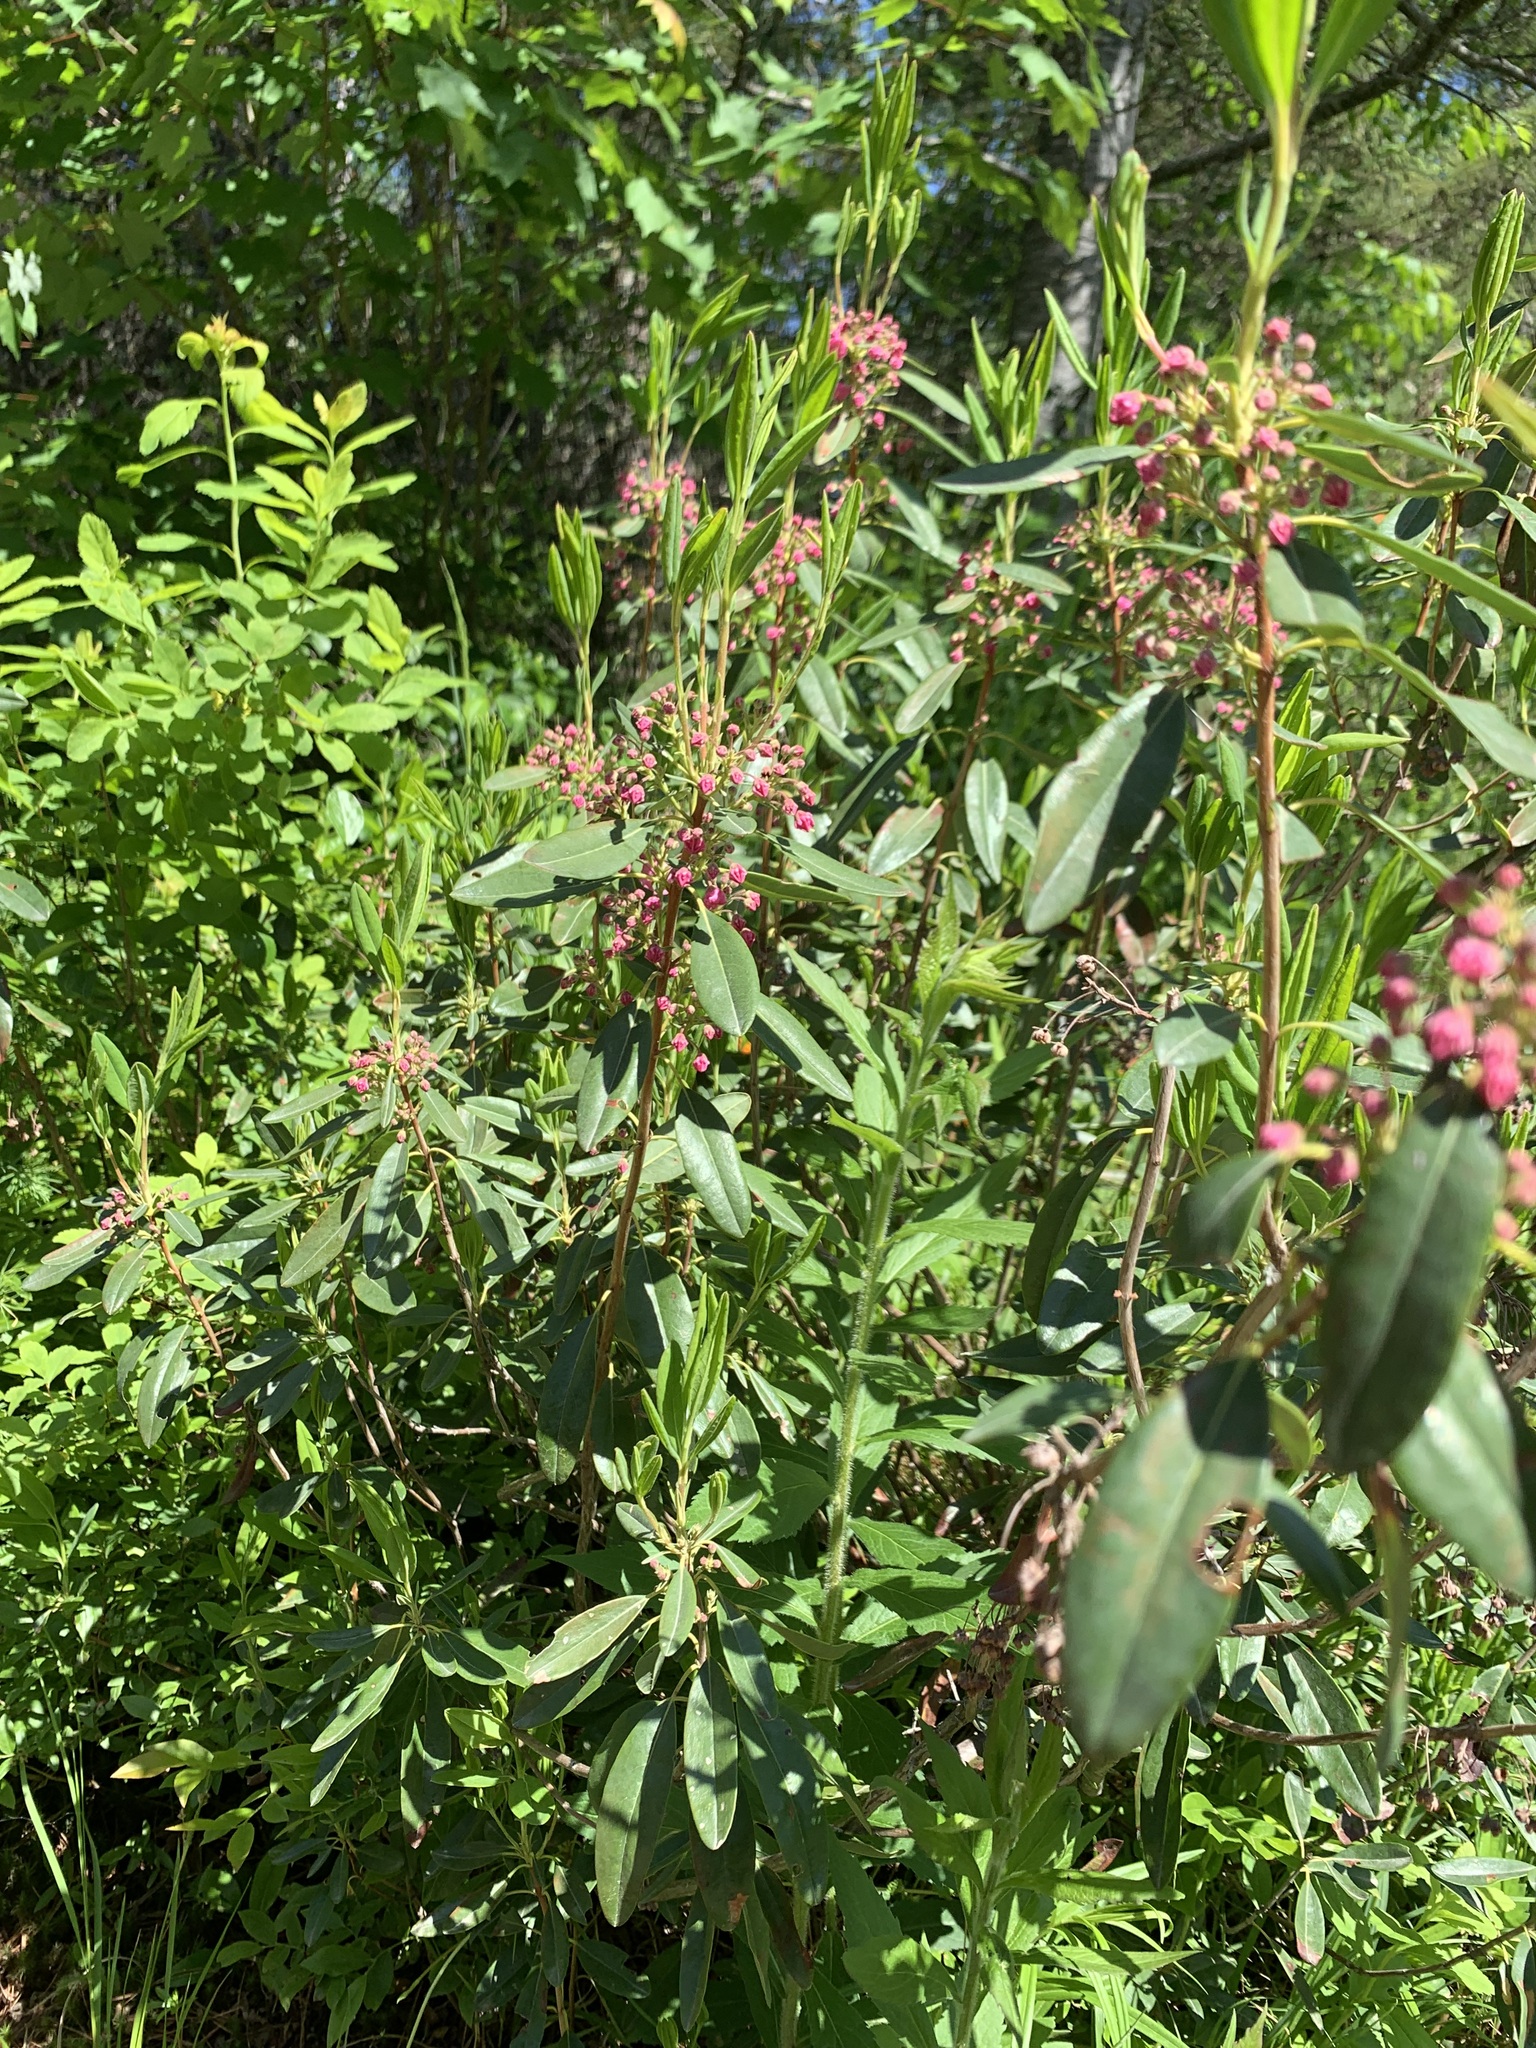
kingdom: Plantae
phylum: Tracheophyta
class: Magnoliopsida
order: Ericales
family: Ericaceae
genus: Kalmia
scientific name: Kalmia angustifolia
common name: Sheep-laurel
